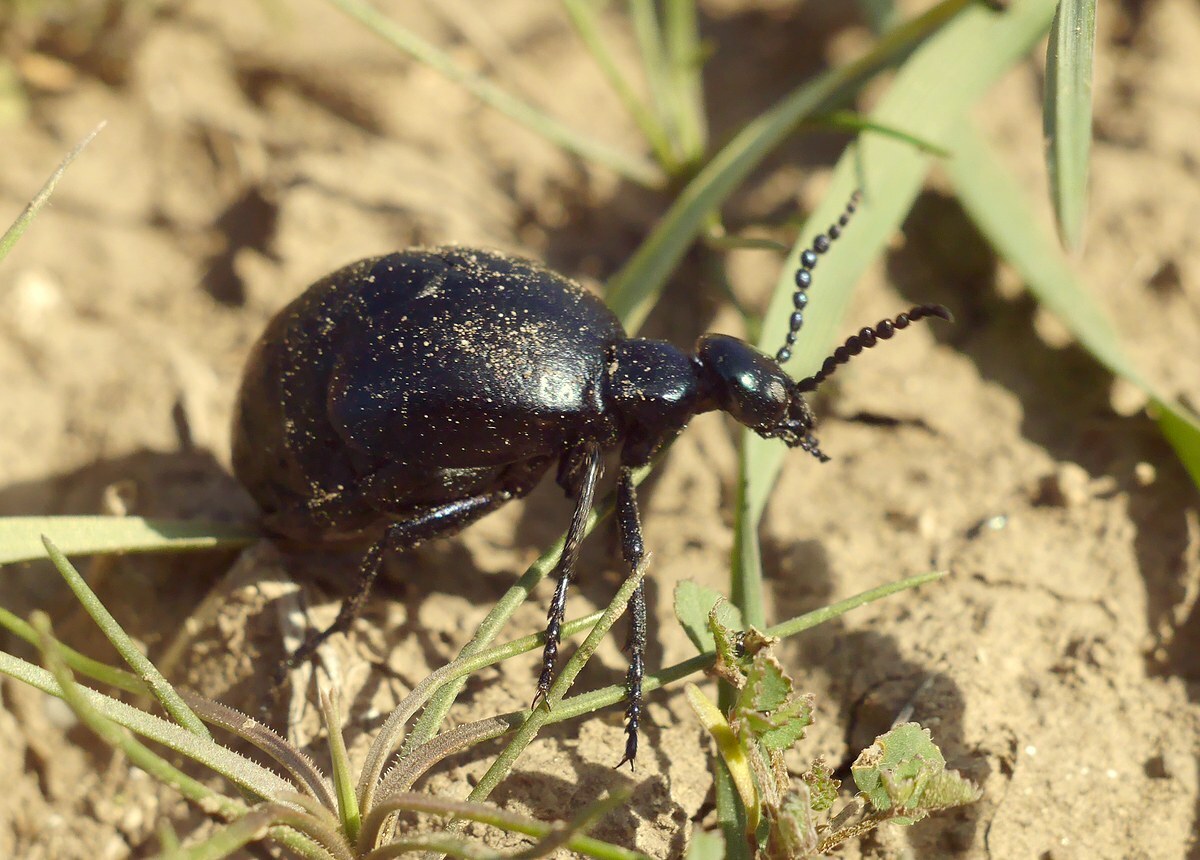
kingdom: Animalia
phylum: Arthropoda
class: Insecta
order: Coleoptera
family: Meloidae
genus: Meloe
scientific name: Meloe autumnalis
